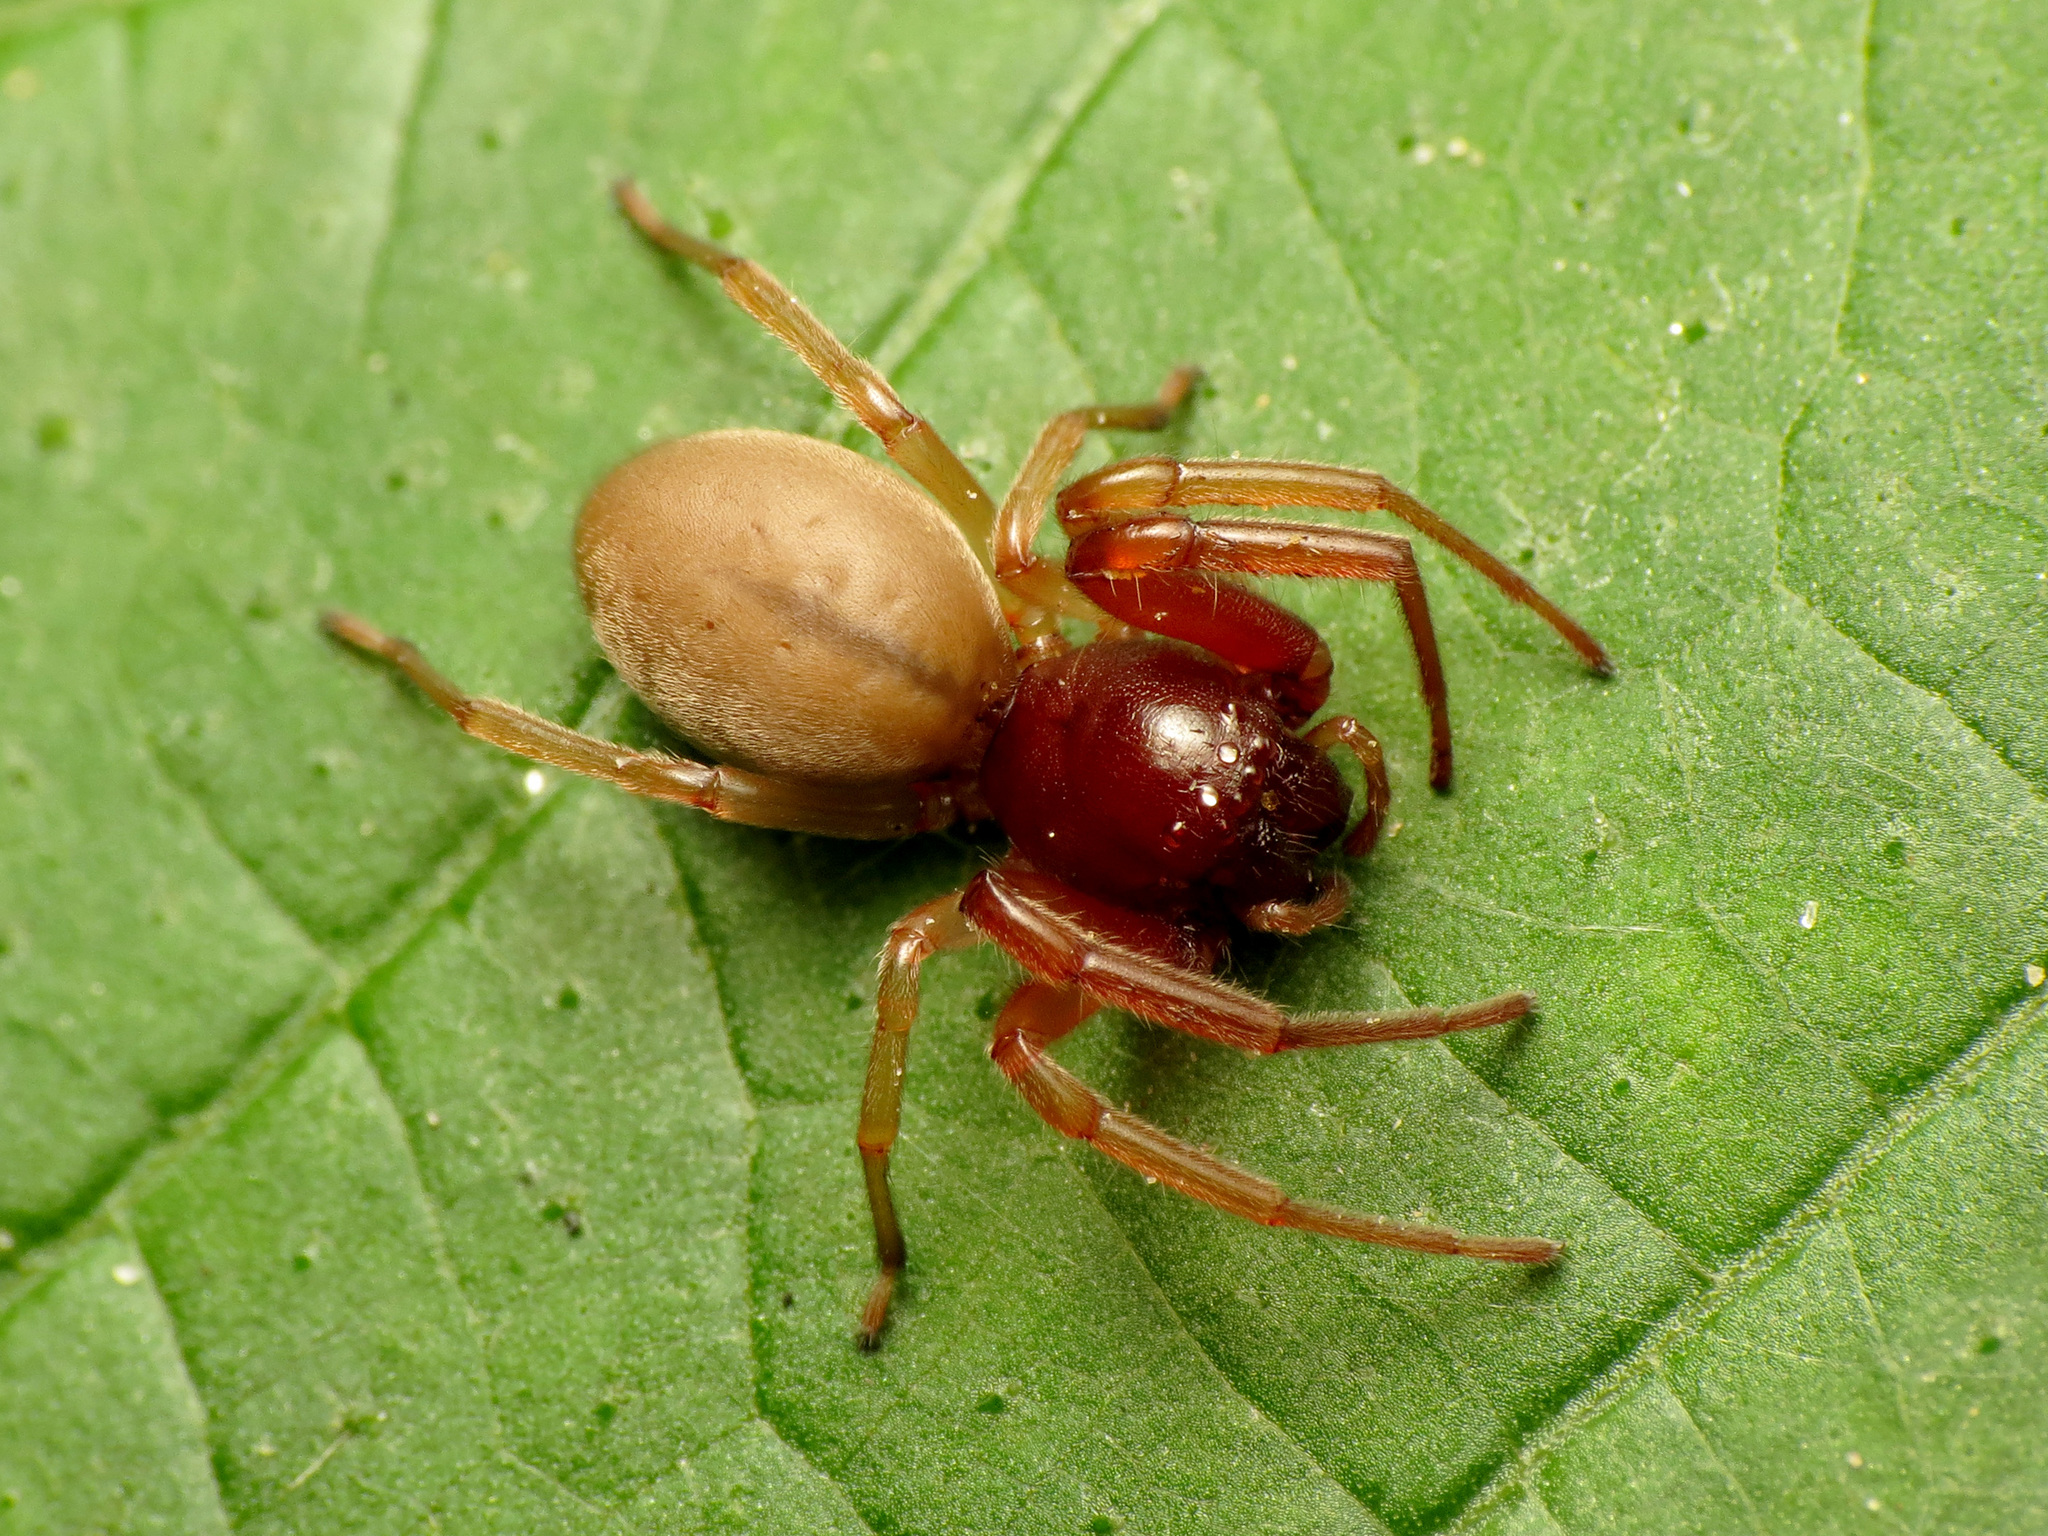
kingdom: Animalia
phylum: Arthropoda
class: Arachnida
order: Araneae
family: Trachelidae
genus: Trachelas
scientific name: Trachelas tranquillus
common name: Broad-faced sac spider
